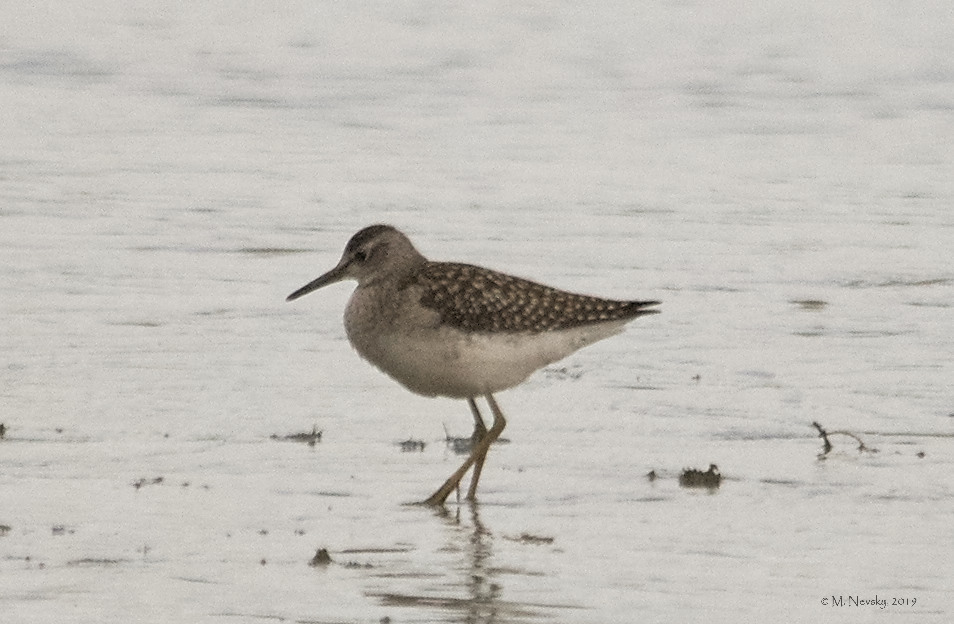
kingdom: Animalia
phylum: Chordata
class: Aves
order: Charadriiformes
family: Scolopacidae
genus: Tringa
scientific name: Tringa glareola
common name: Wood sandpiper
